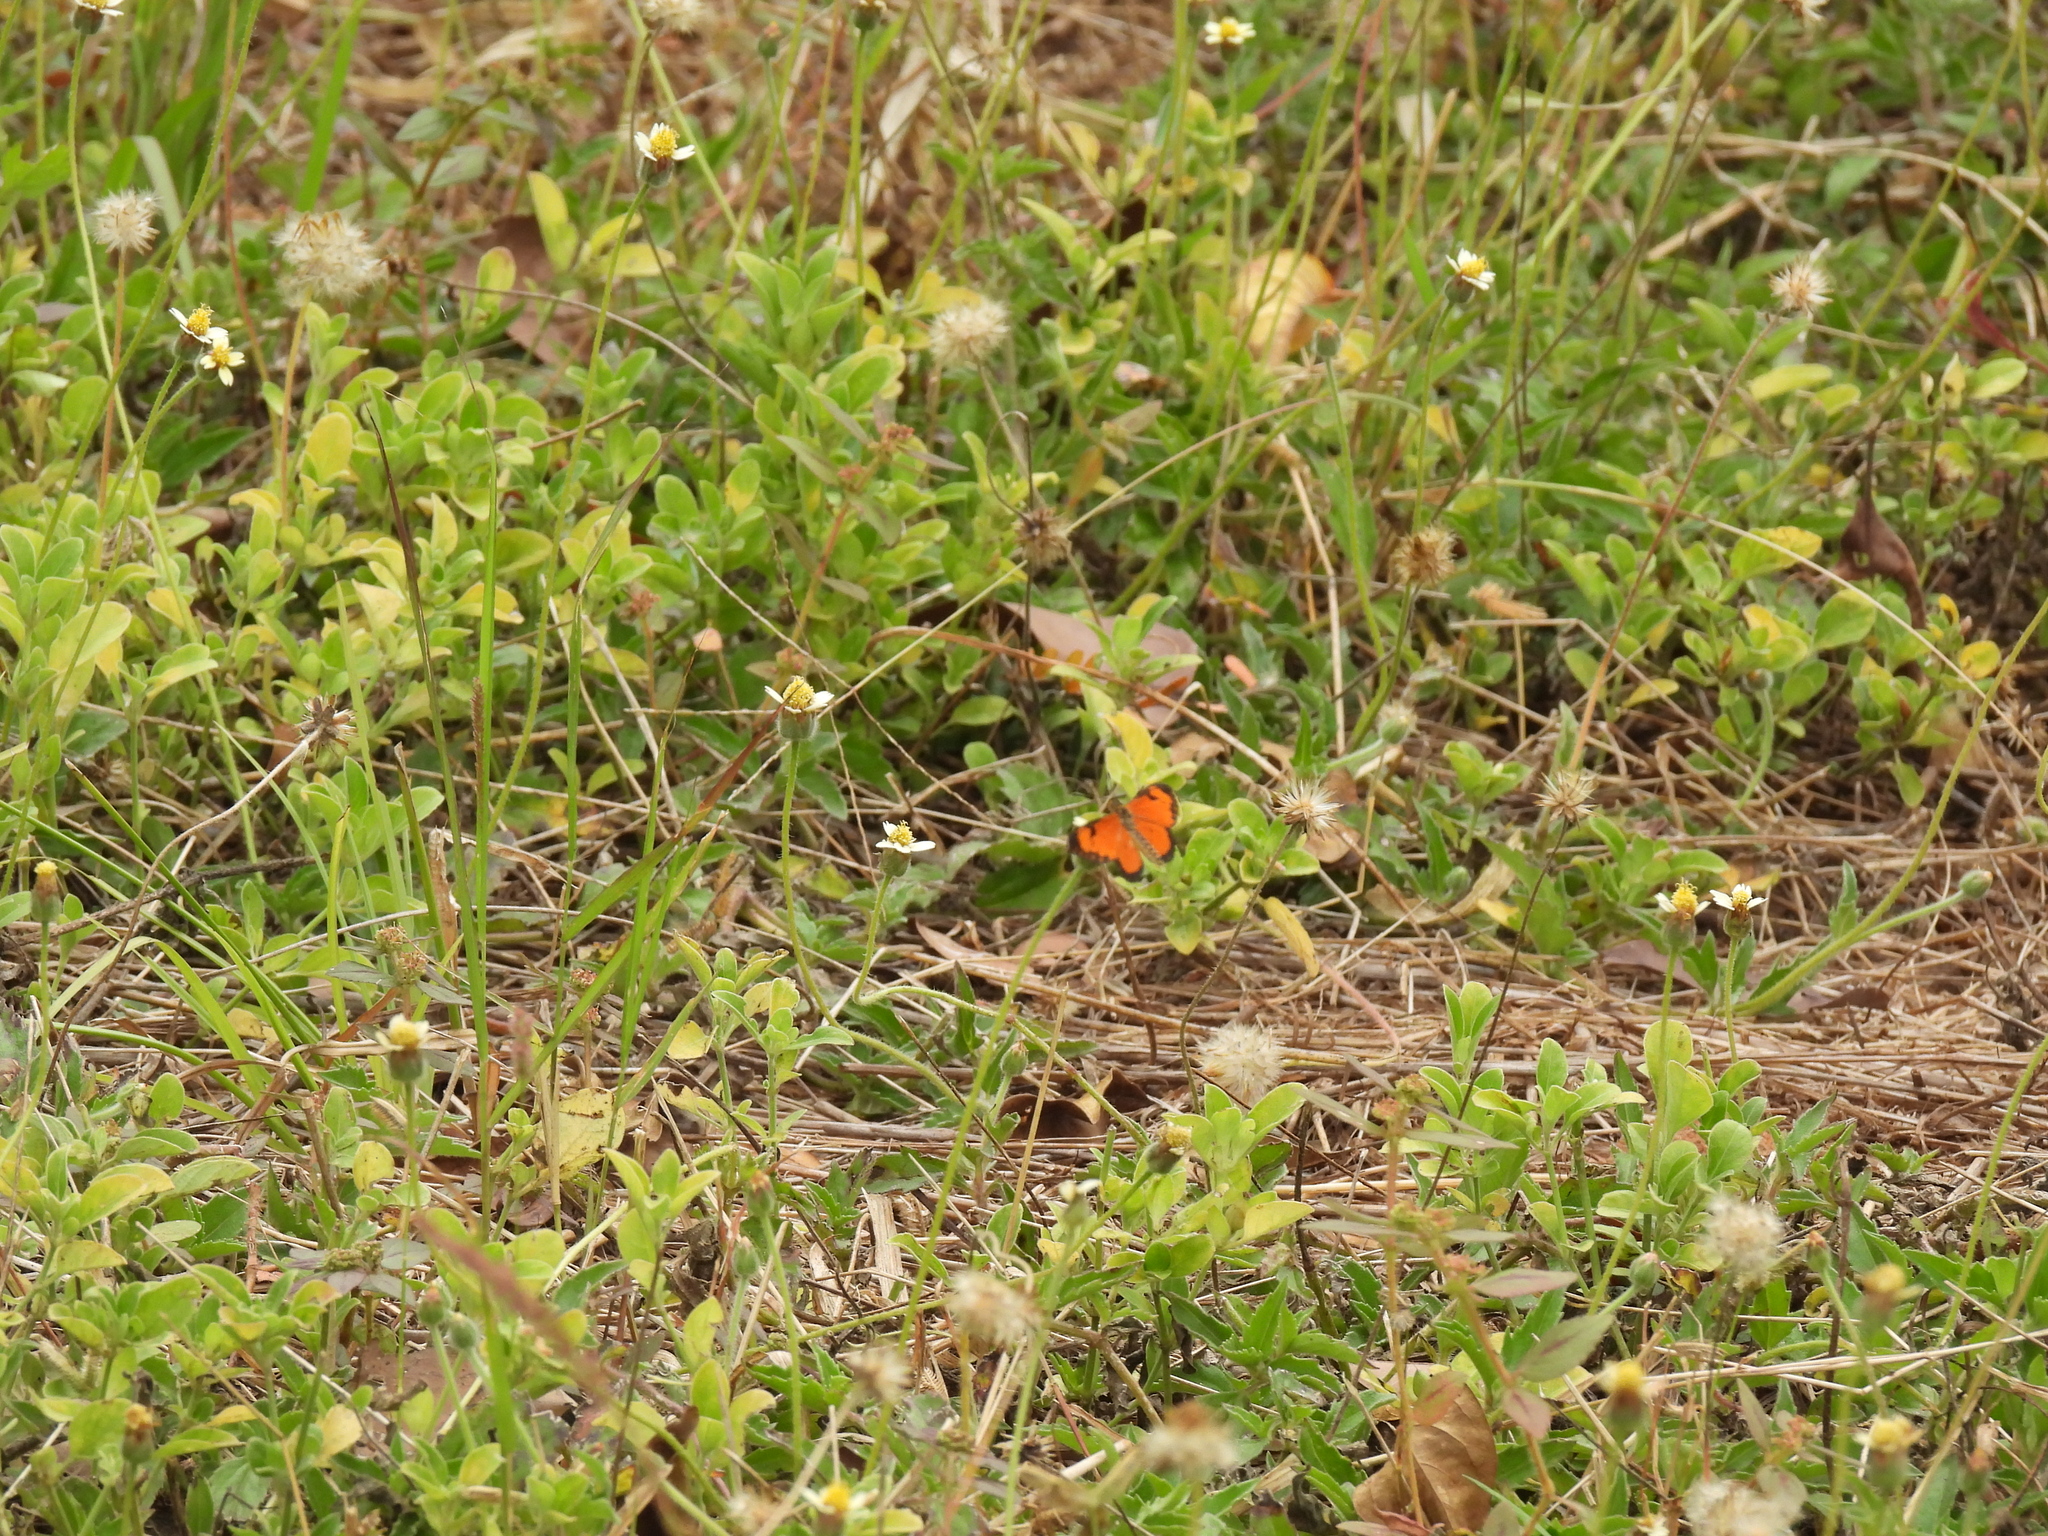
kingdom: Animalia
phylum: Arthropoda
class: Insecta
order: Lepidoptera
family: Nymphalidae
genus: Acraea
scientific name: Acraea Telchinia serena
